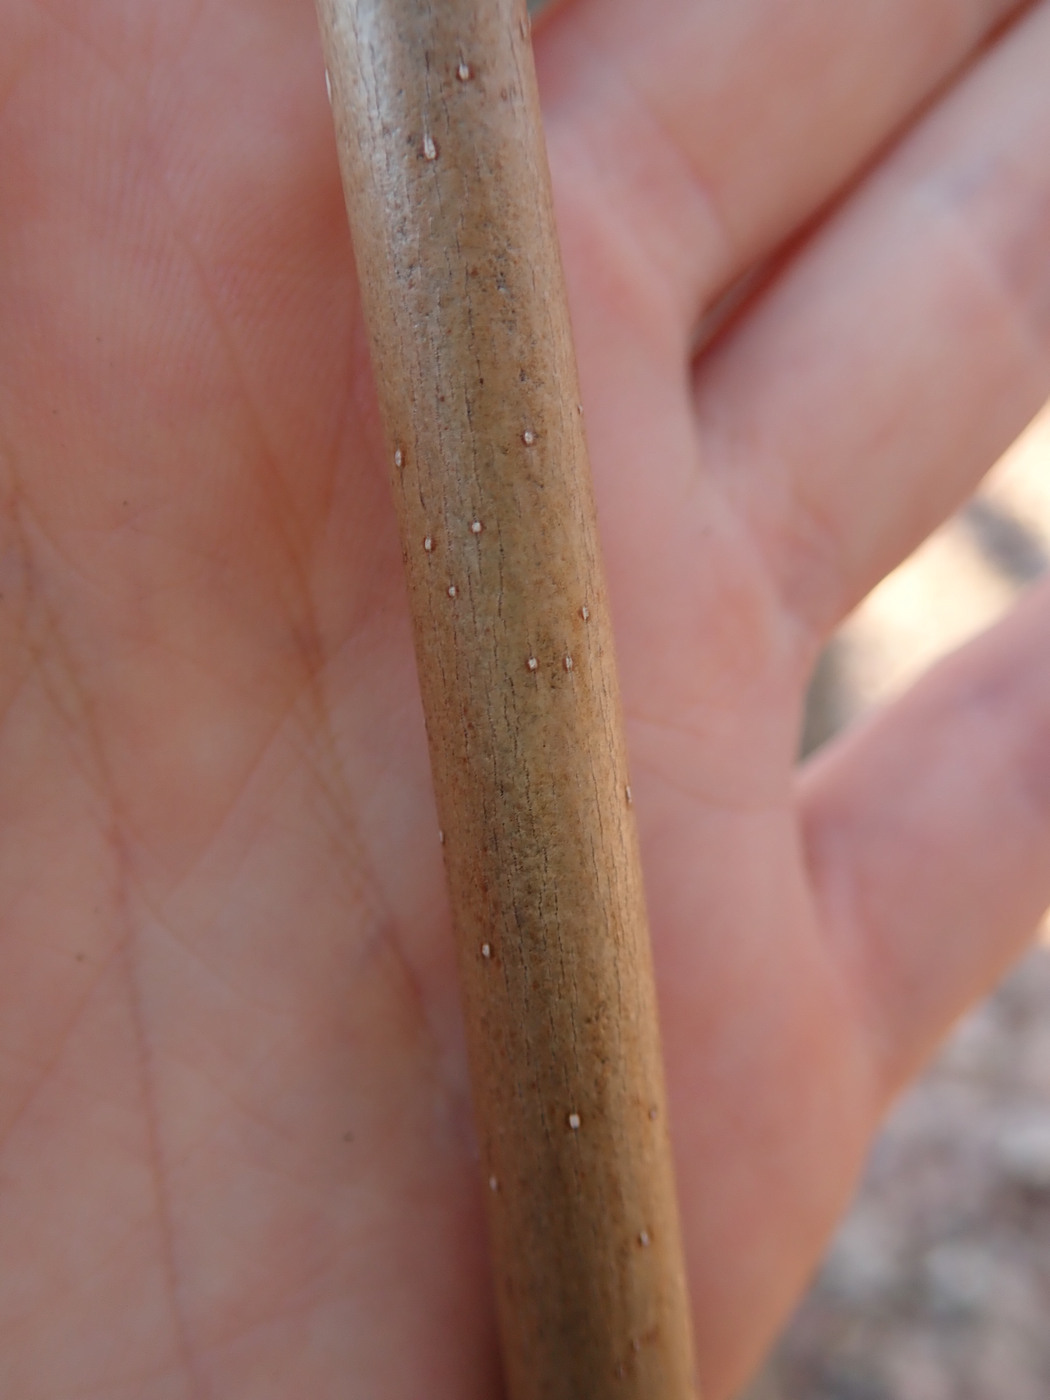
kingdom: Plantae
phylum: Tracheophyta
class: Magnoliopsida
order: Magnoliales
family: Magnoliaceae
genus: Magnolia
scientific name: Magnolia acuminata
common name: Cucumber magnolia
